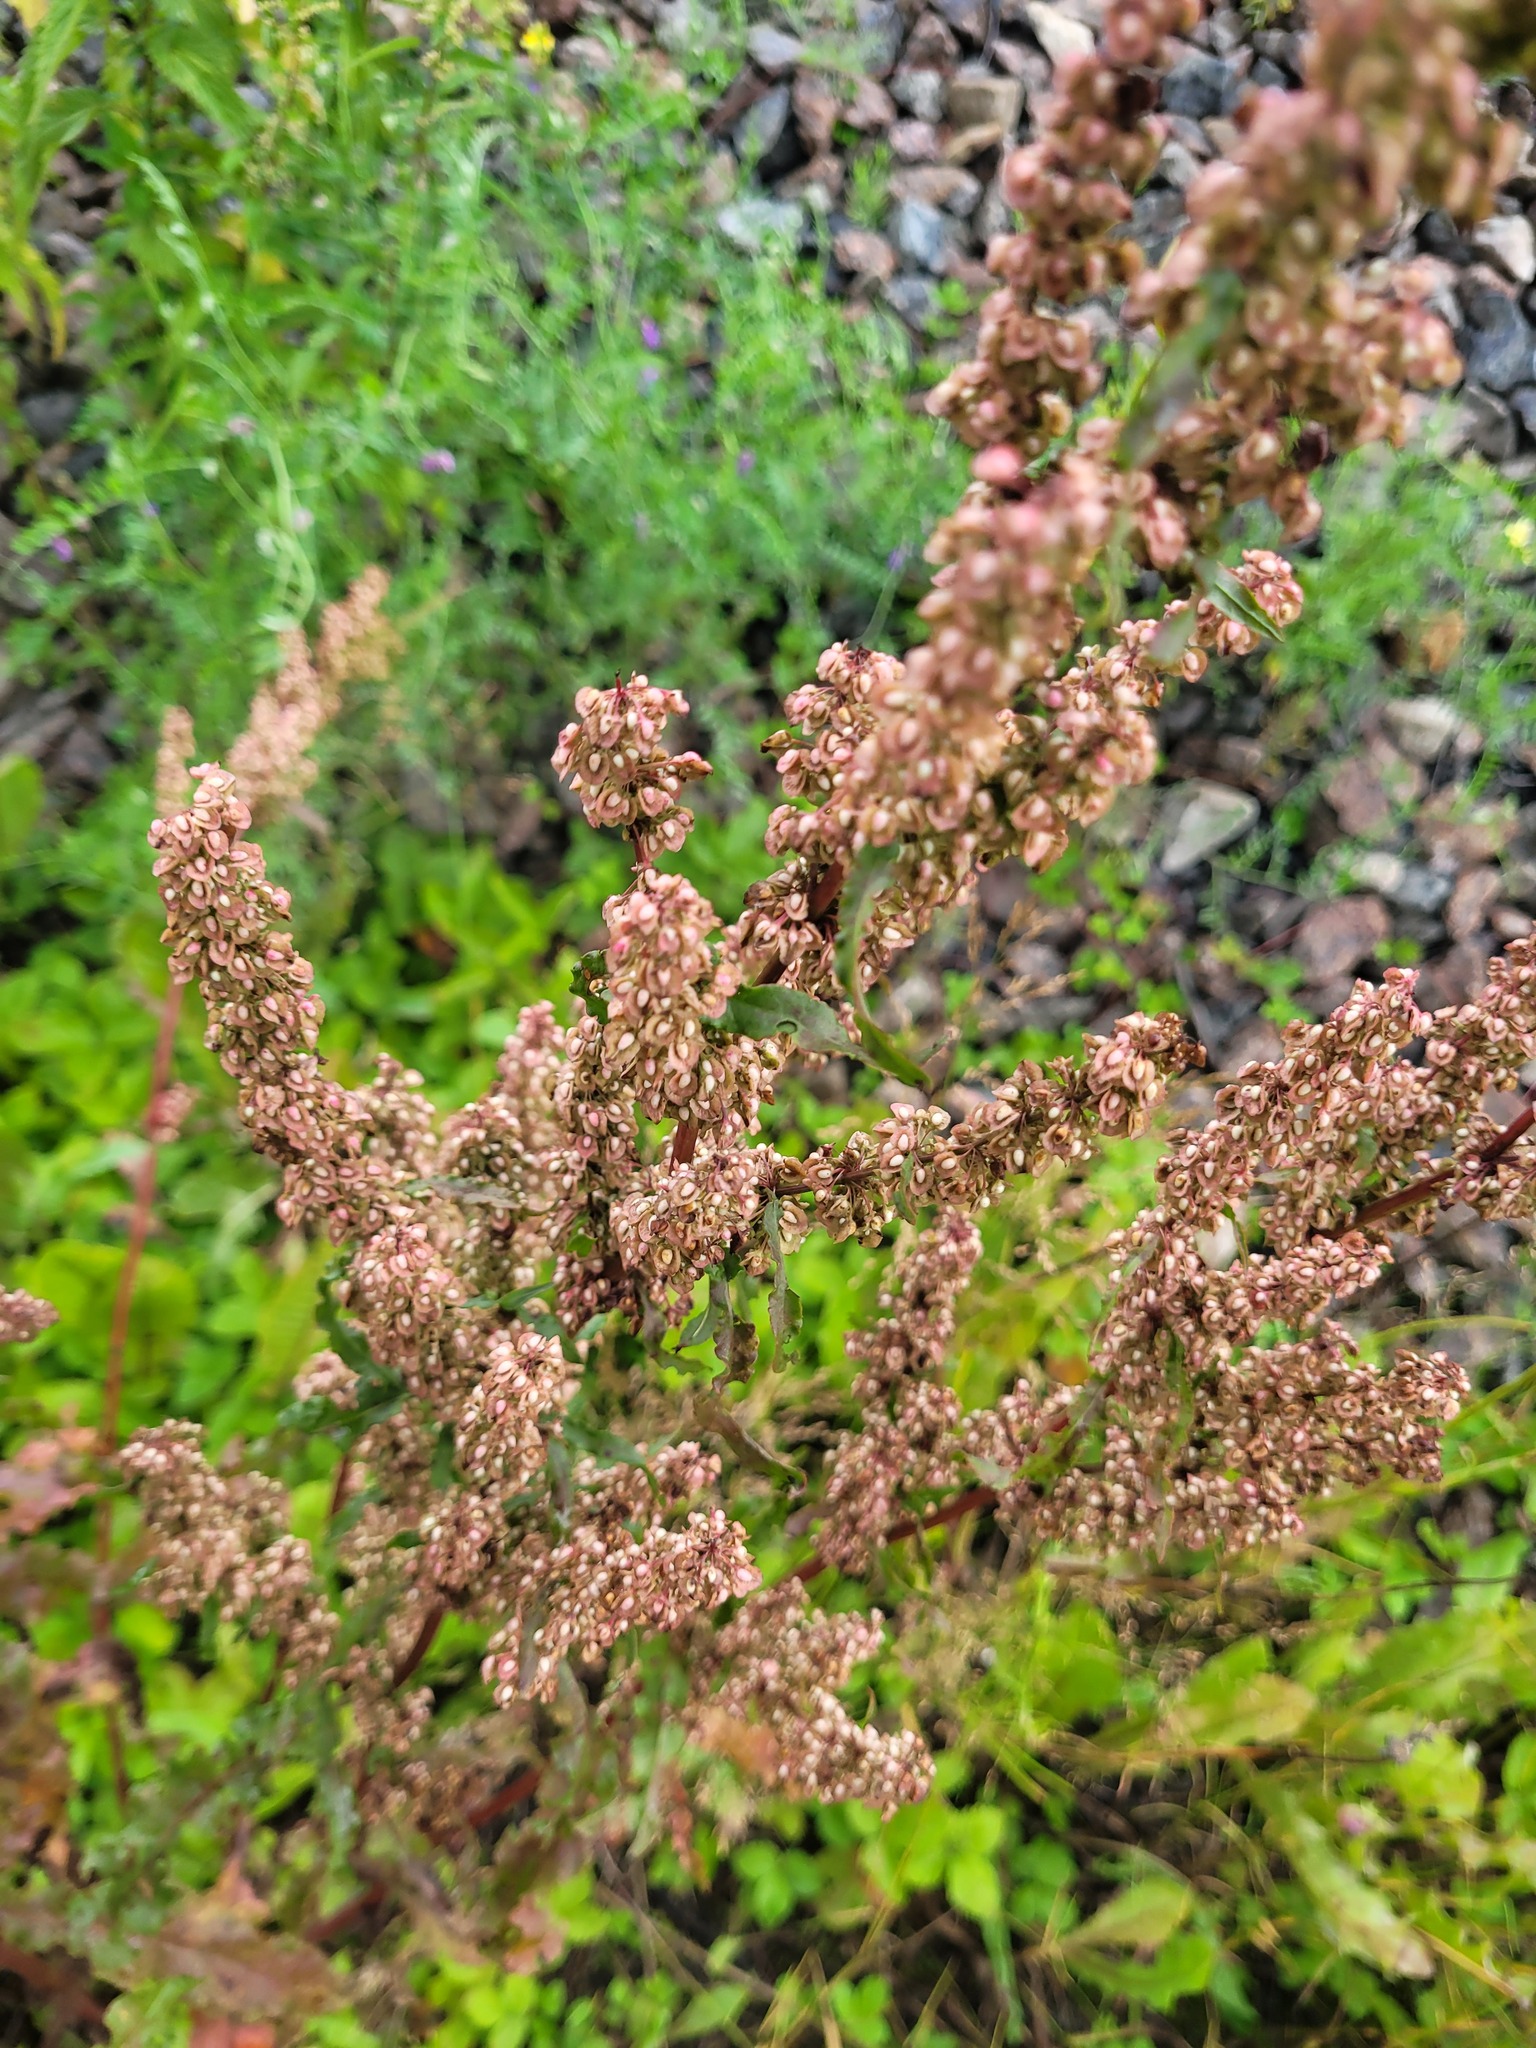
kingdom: Plantae
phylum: Tracheophyta
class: Magnoliopsida
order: Caryophyllales
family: Polygonaceae
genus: Rumex
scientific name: Rumex crispus
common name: Curled dock
